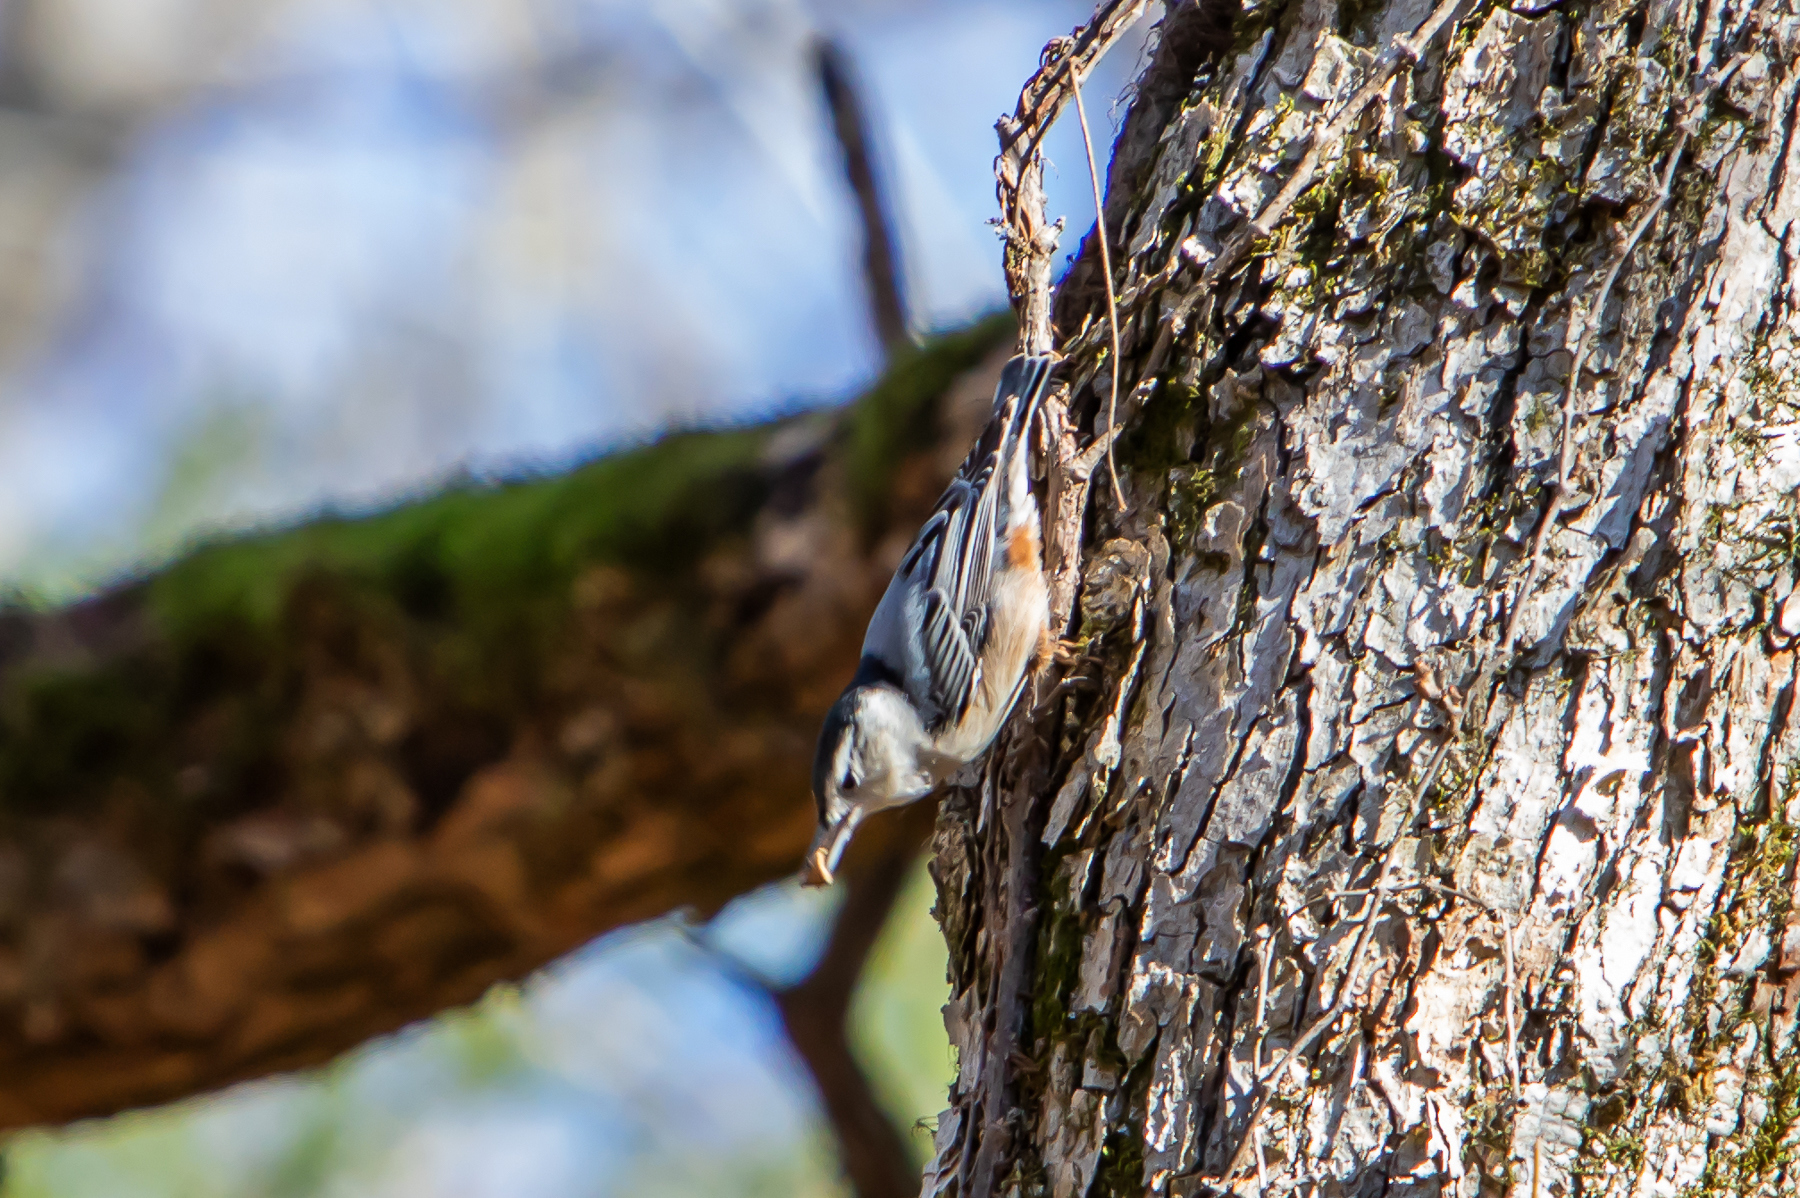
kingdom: Animalia
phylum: Chordata
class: Aves
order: Passeriformes
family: Sittidae
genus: Sitta
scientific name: Sitta carolinensis
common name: White-breasted nuthatch
